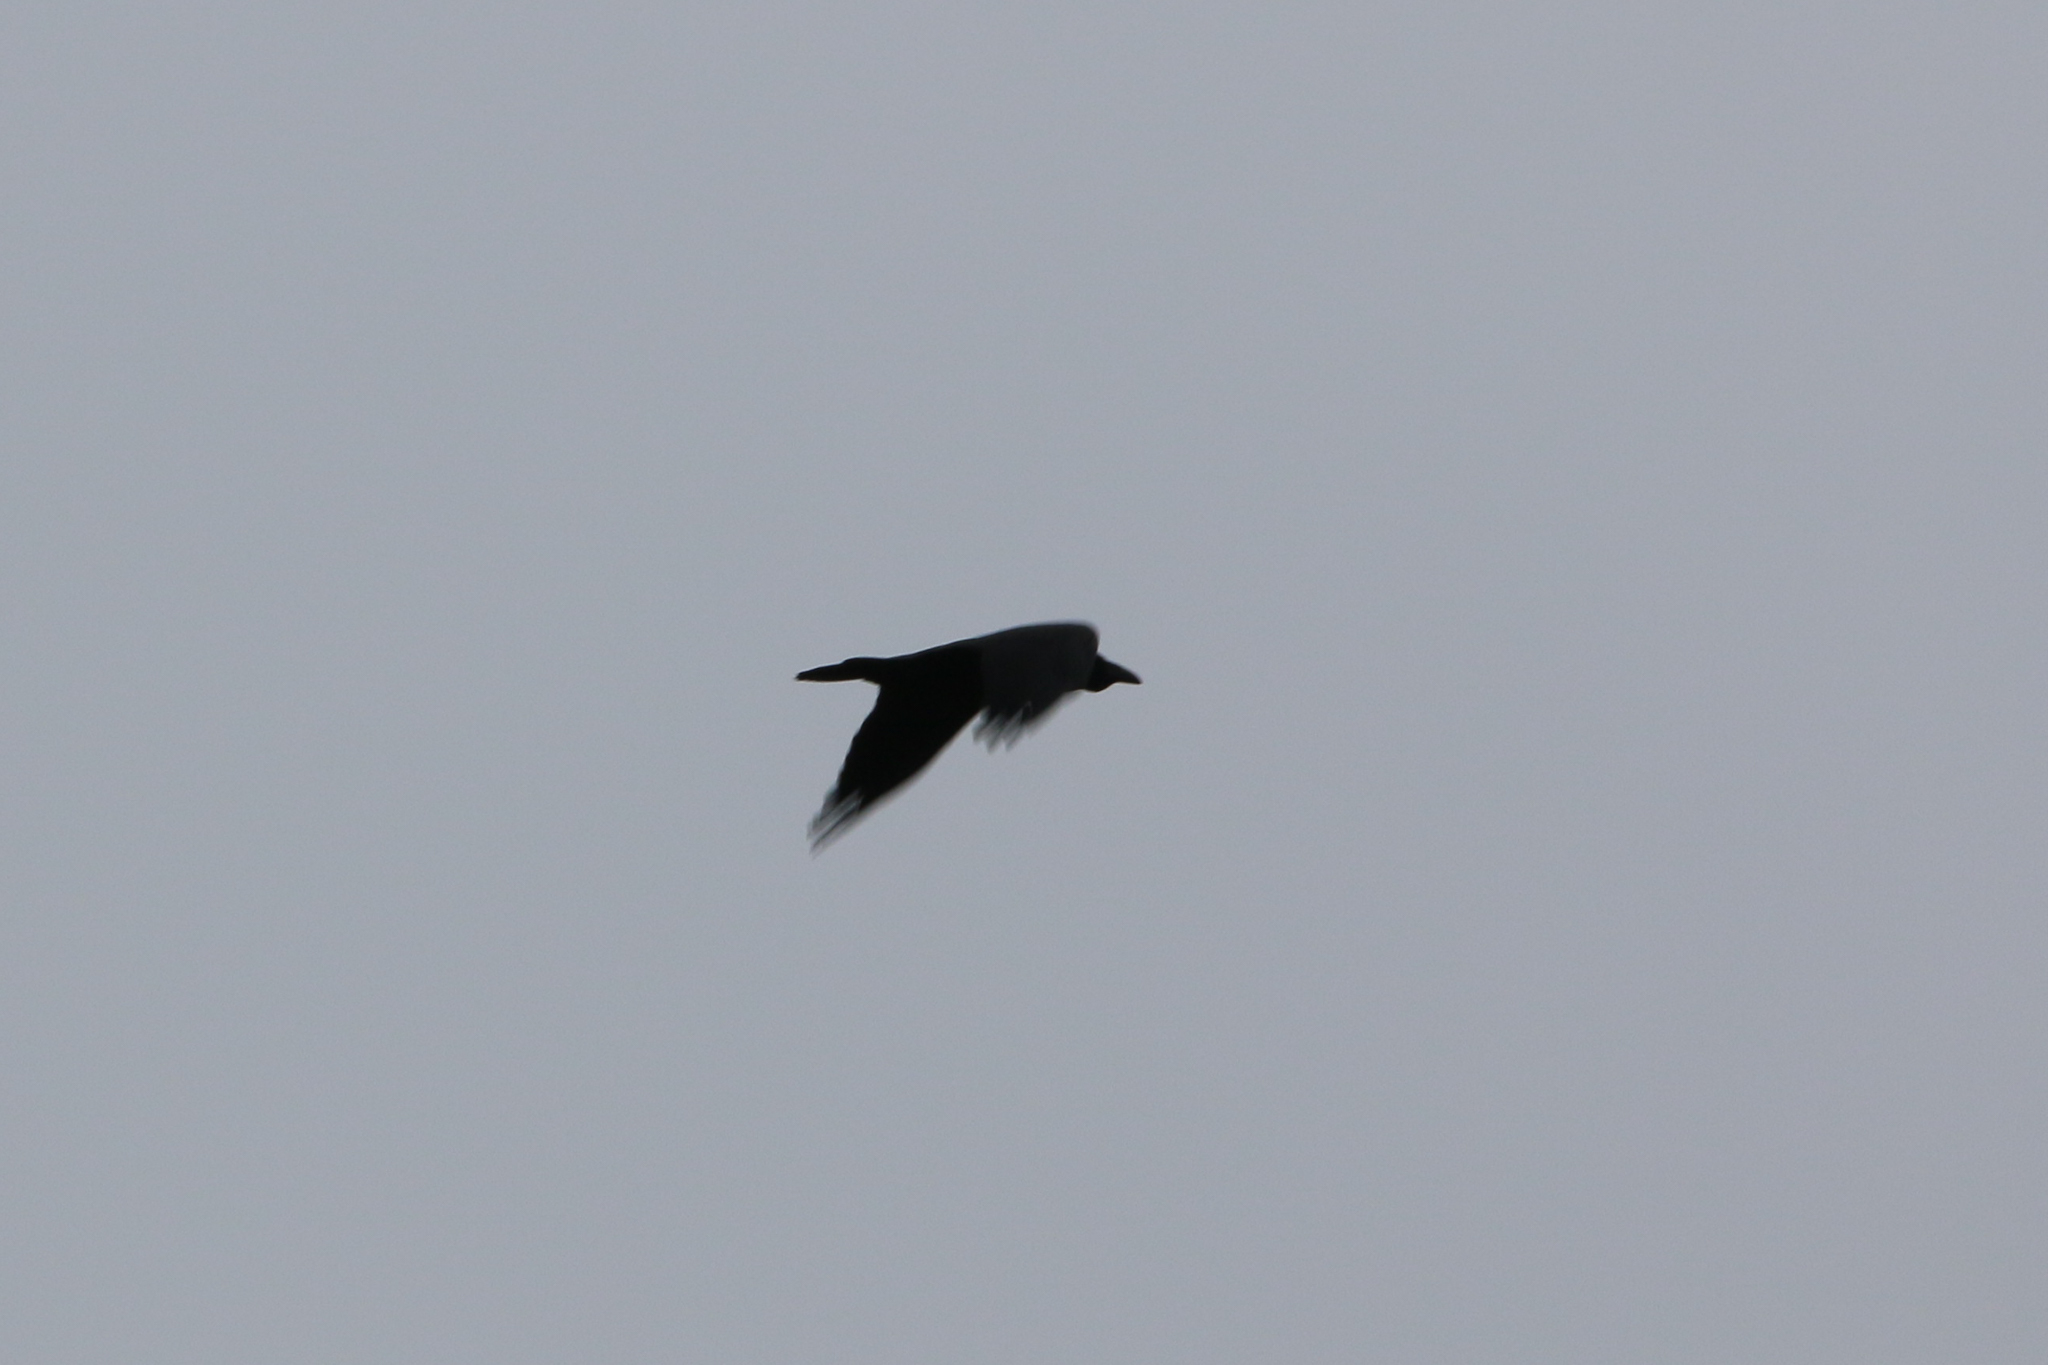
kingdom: Animalia
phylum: Chordata
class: Aves
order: Passeriformes
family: Corvidae
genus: Corvus
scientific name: Corvus corax
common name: Common raven
